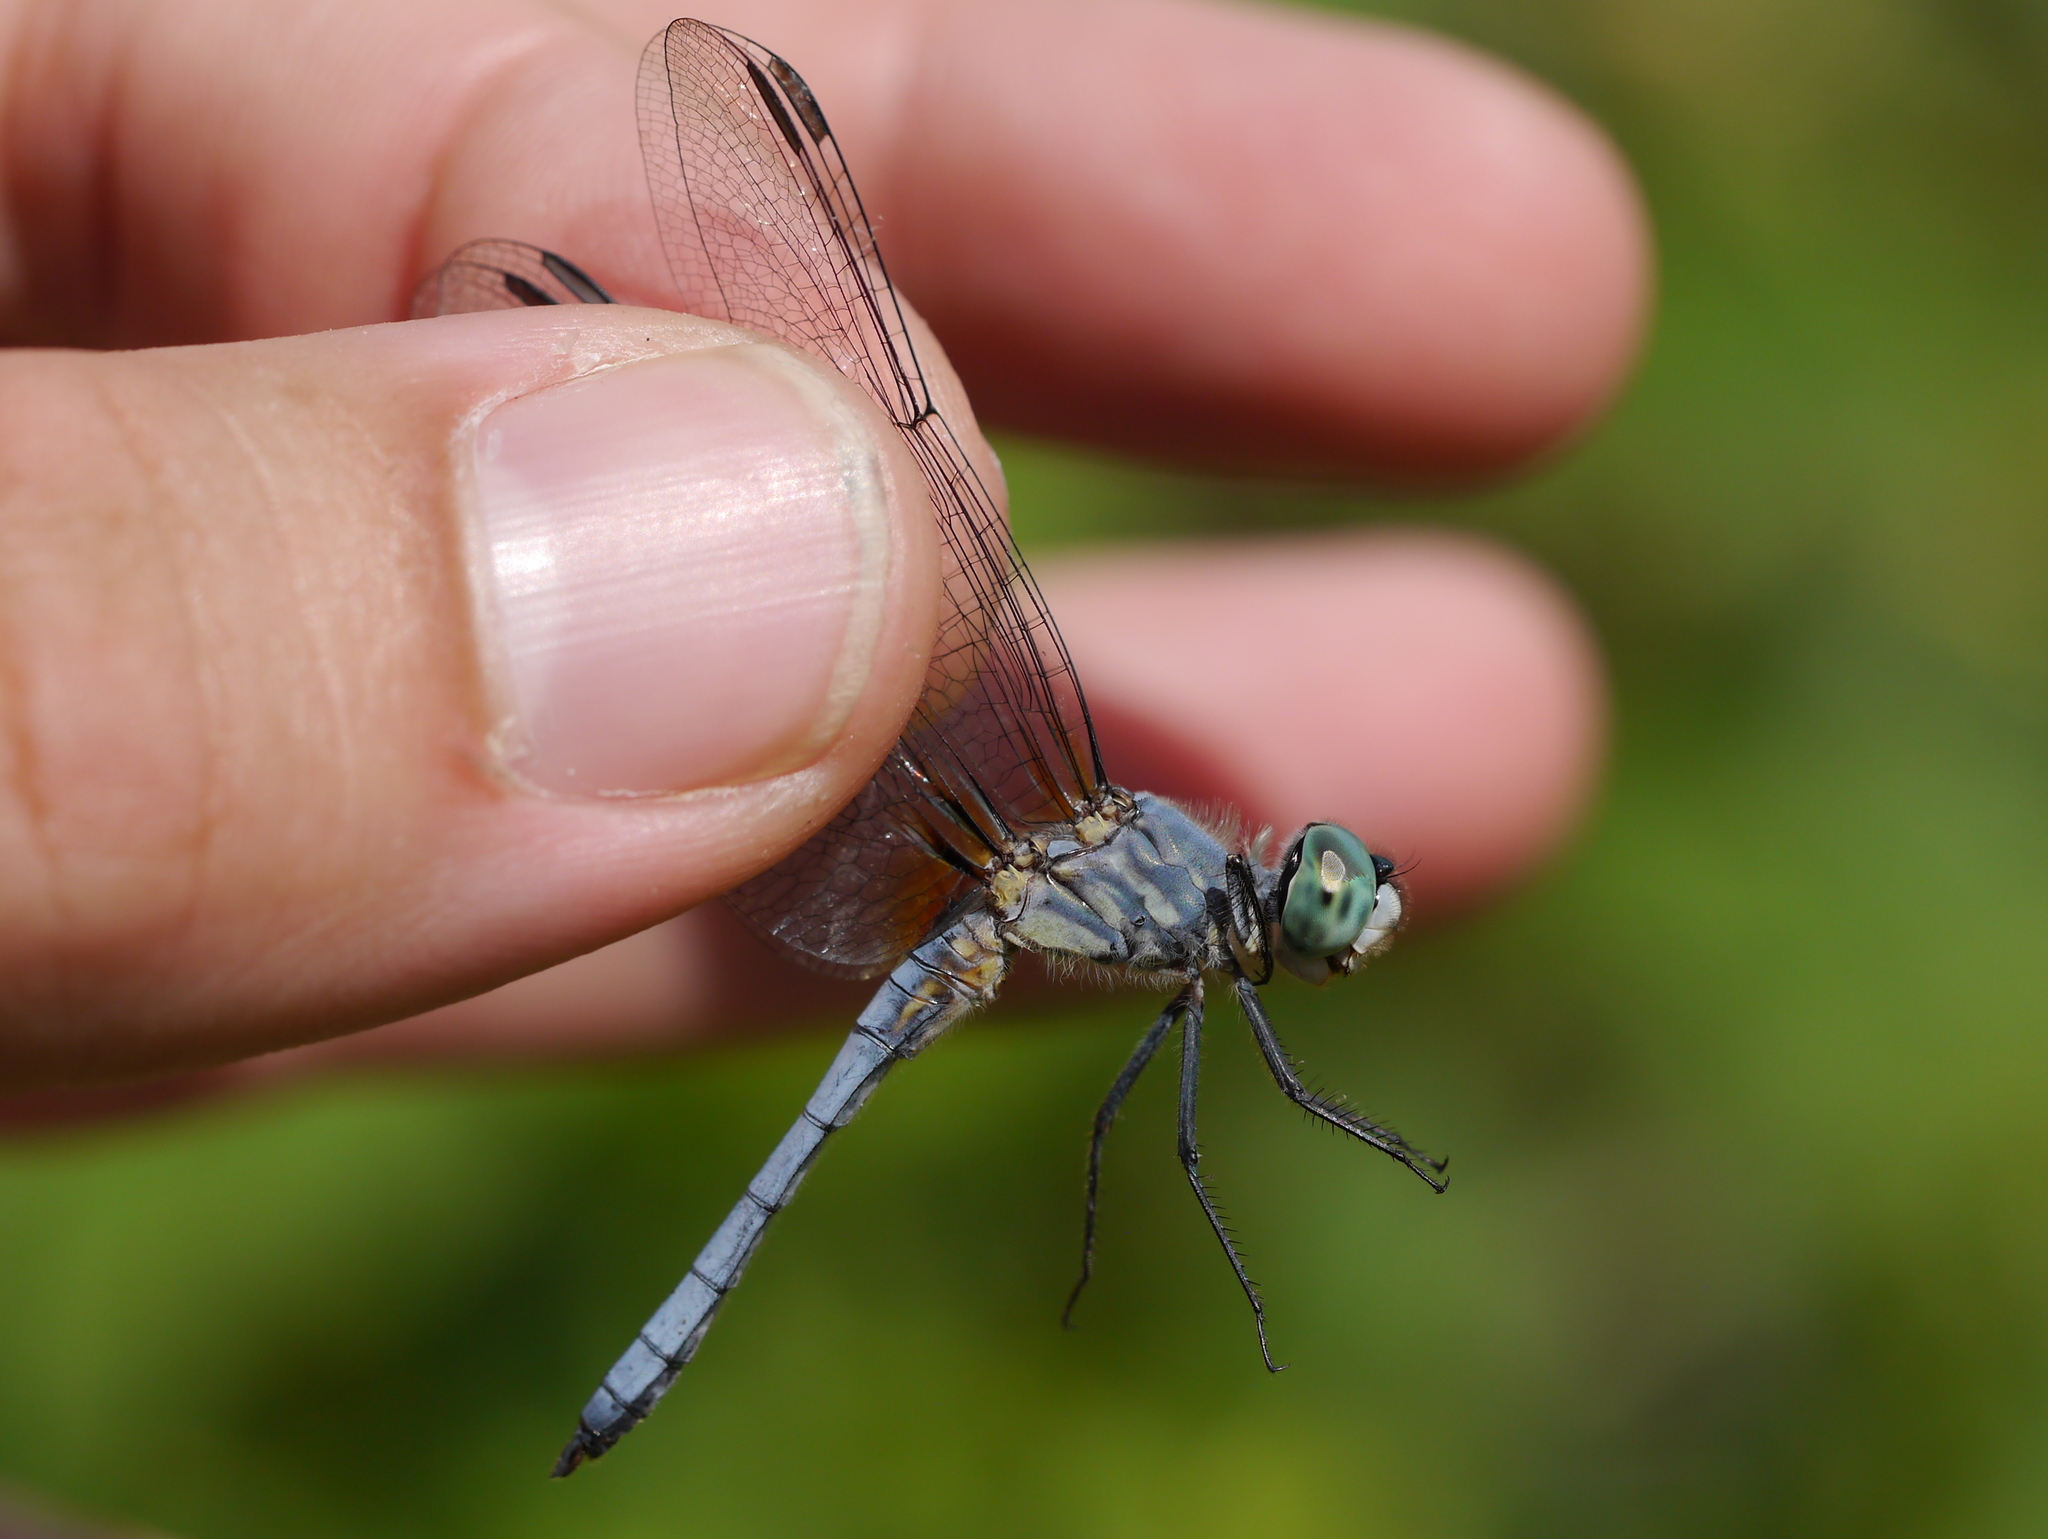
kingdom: Animalia
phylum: Arthropoda
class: Insecta
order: Odonata
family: Libellulidae
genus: Pachydiplax
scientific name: Pachydiplax longipennis
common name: Blue dasher
